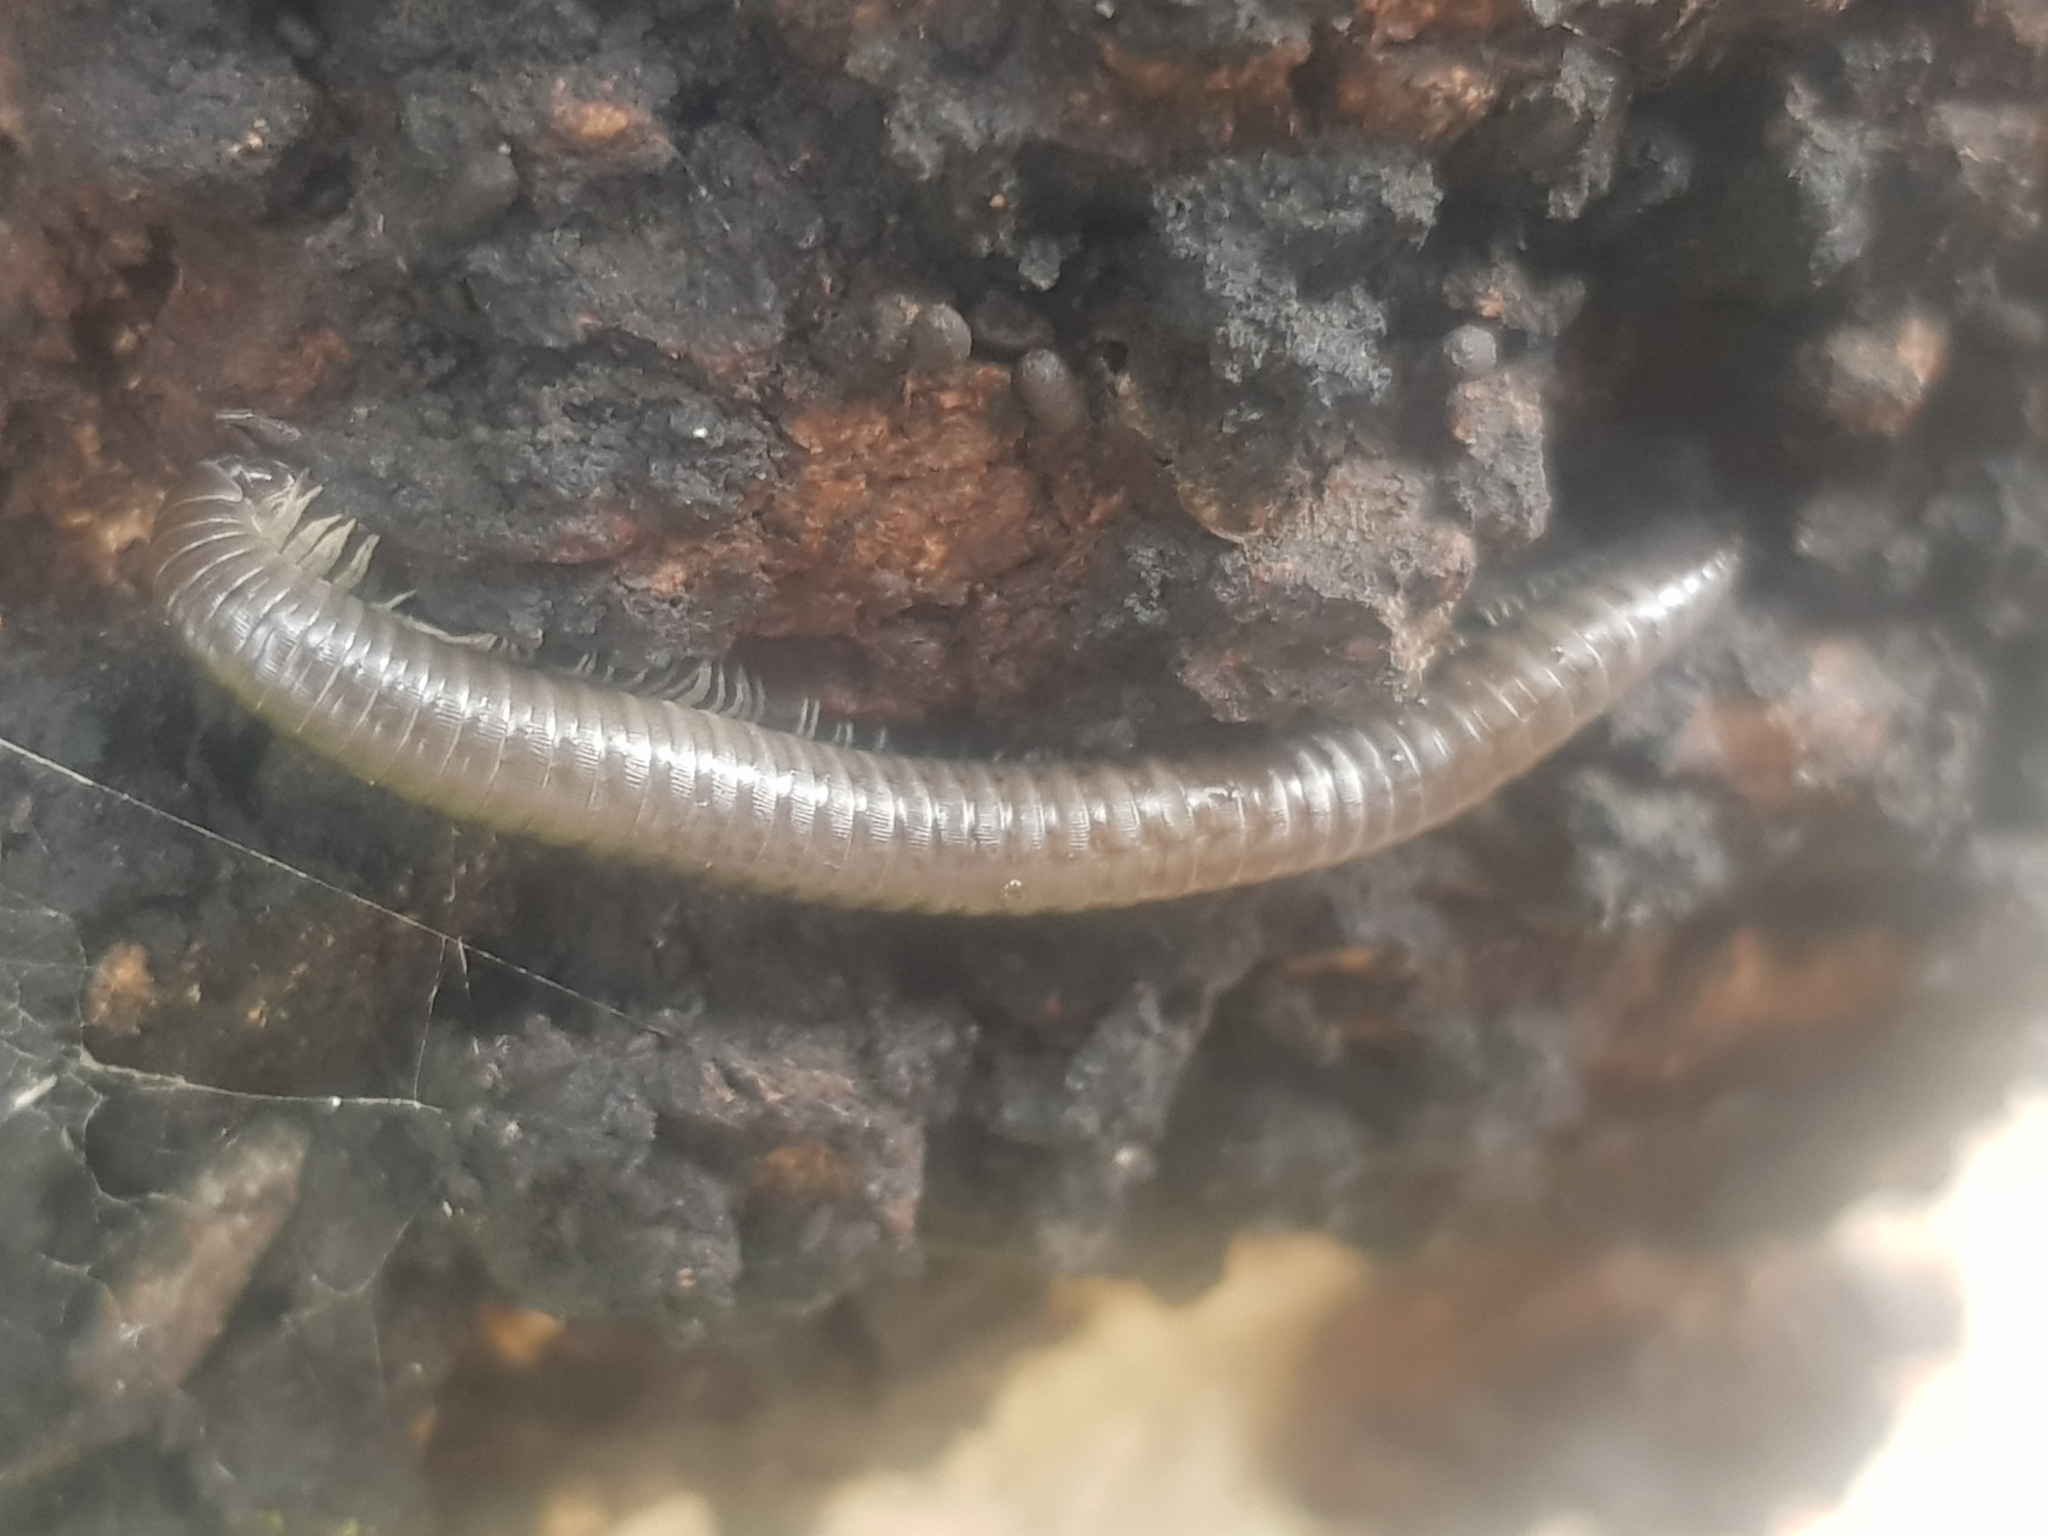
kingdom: Animalia
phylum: Arthropoda
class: Diplopoda
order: Julida
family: Julidae
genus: Ommatoiulus
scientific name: Ommatoiulus moreleti
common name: Portuguese millipede
